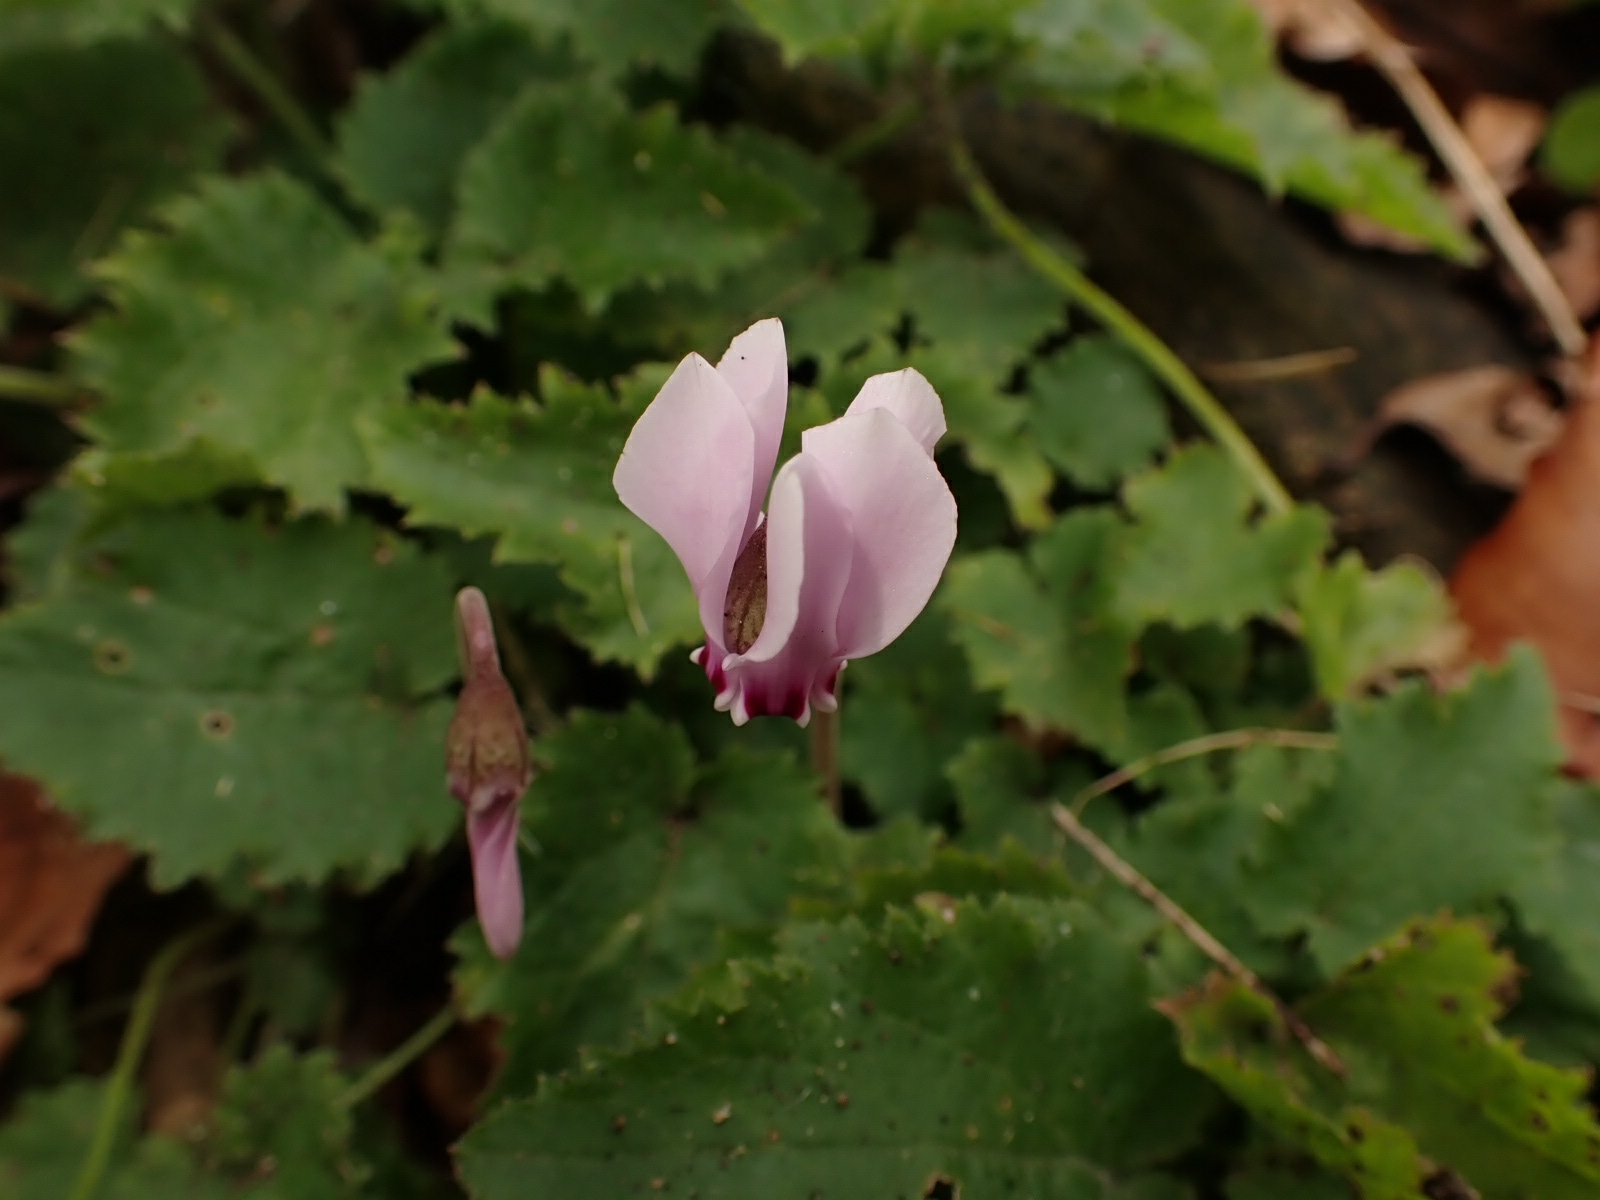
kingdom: Plantae
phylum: Tracheophyta
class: Magnoliopsida
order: Ericales
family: Primulaceae
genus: Cyclamen
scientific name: Cyclamen hederifolium
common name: Sowbread
